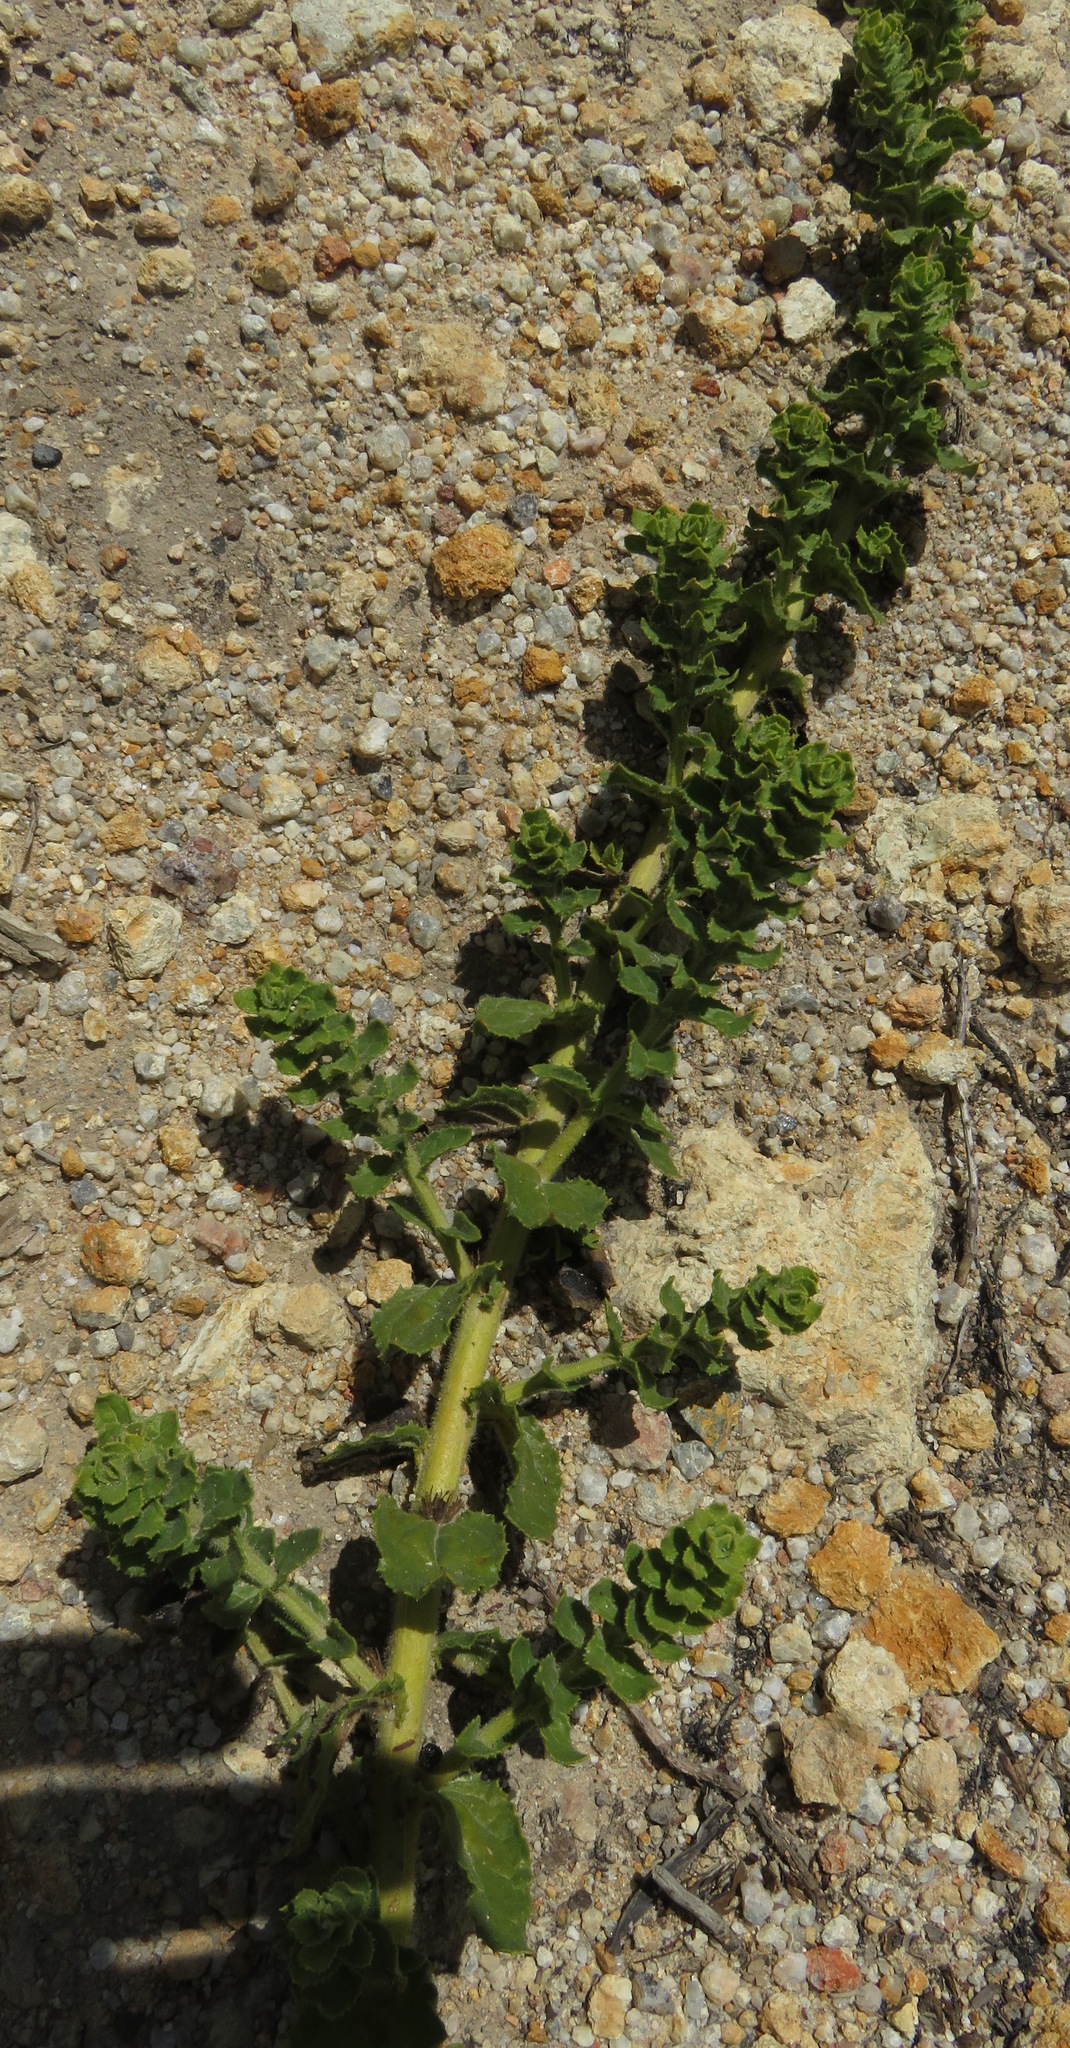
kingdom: Plantae
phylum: Tracheophyta
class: Magnoliopsida
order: Lamiales
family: Scrophulariaceae
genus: Oftia
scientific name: Oftia africana
